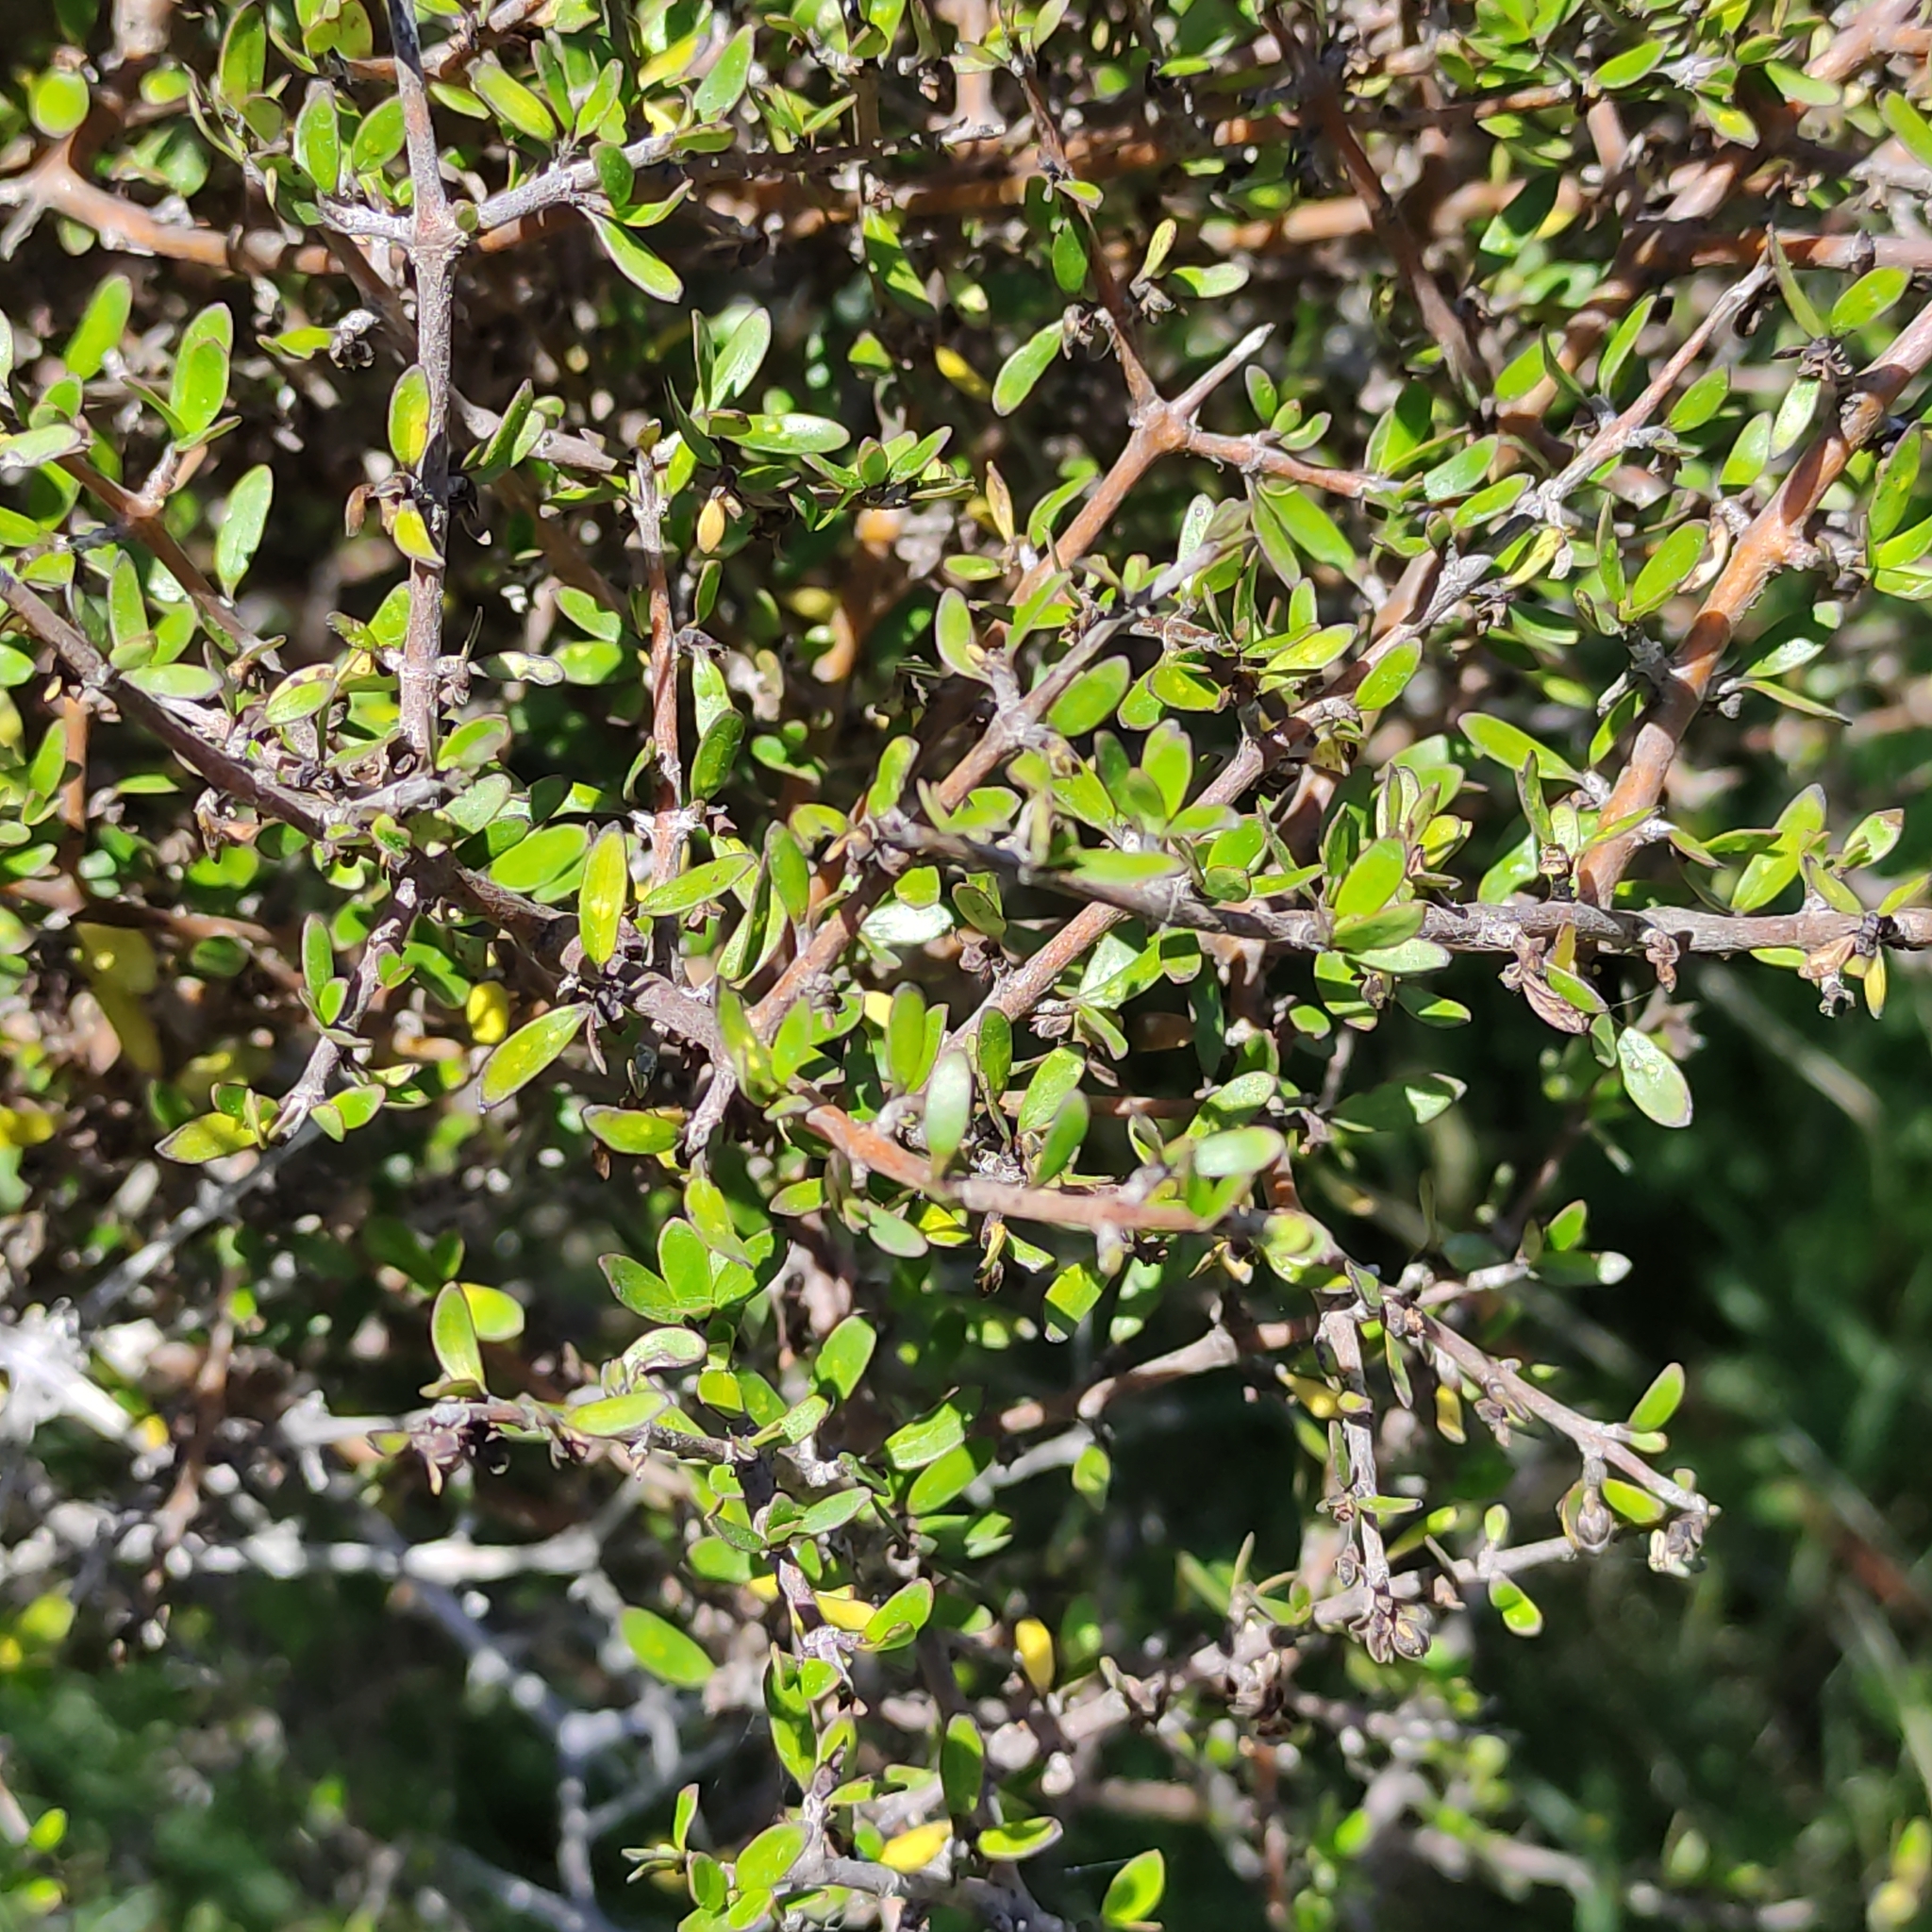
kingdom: Plantae
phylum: Tracheophyta
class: Magnoliopsida
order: Gentianales
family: Rubiaceae
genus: Coprosma
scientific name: Coprosma propinqua
